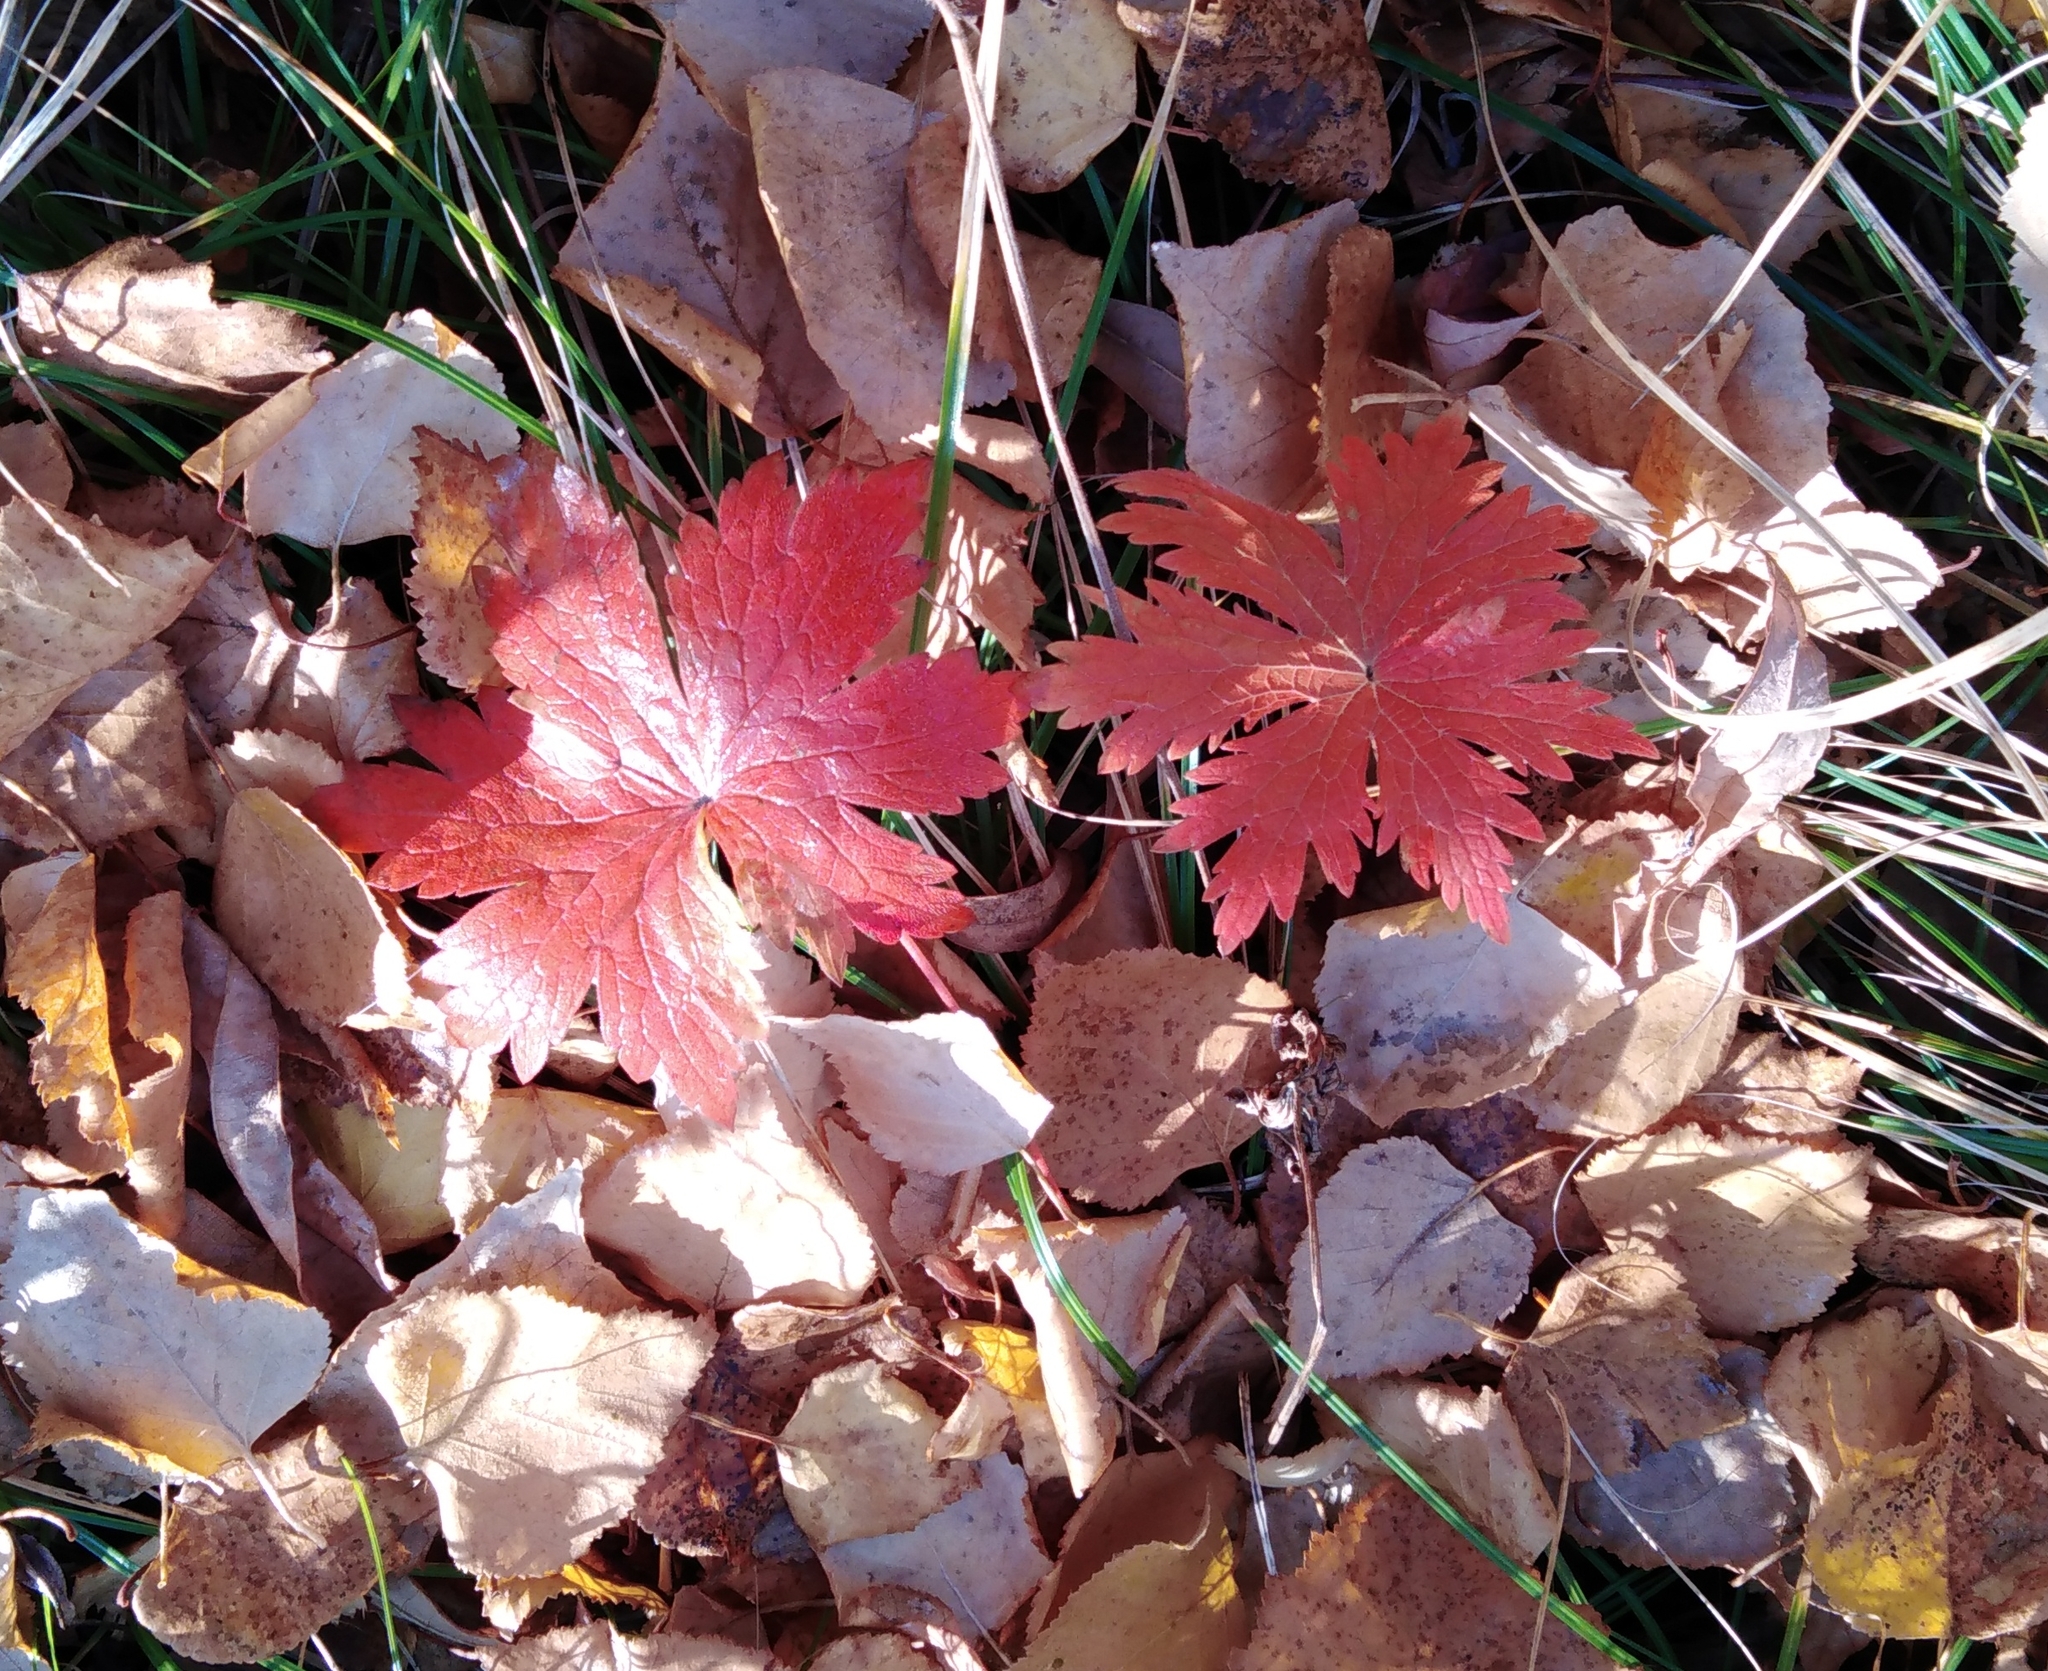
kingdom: Plantae
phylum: Tracheophyta
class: Magnoliopsida
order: Geraniales
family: Geraniaceae
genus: Geranium
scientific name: Geranium erianthum
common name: Northern crane's-bill
